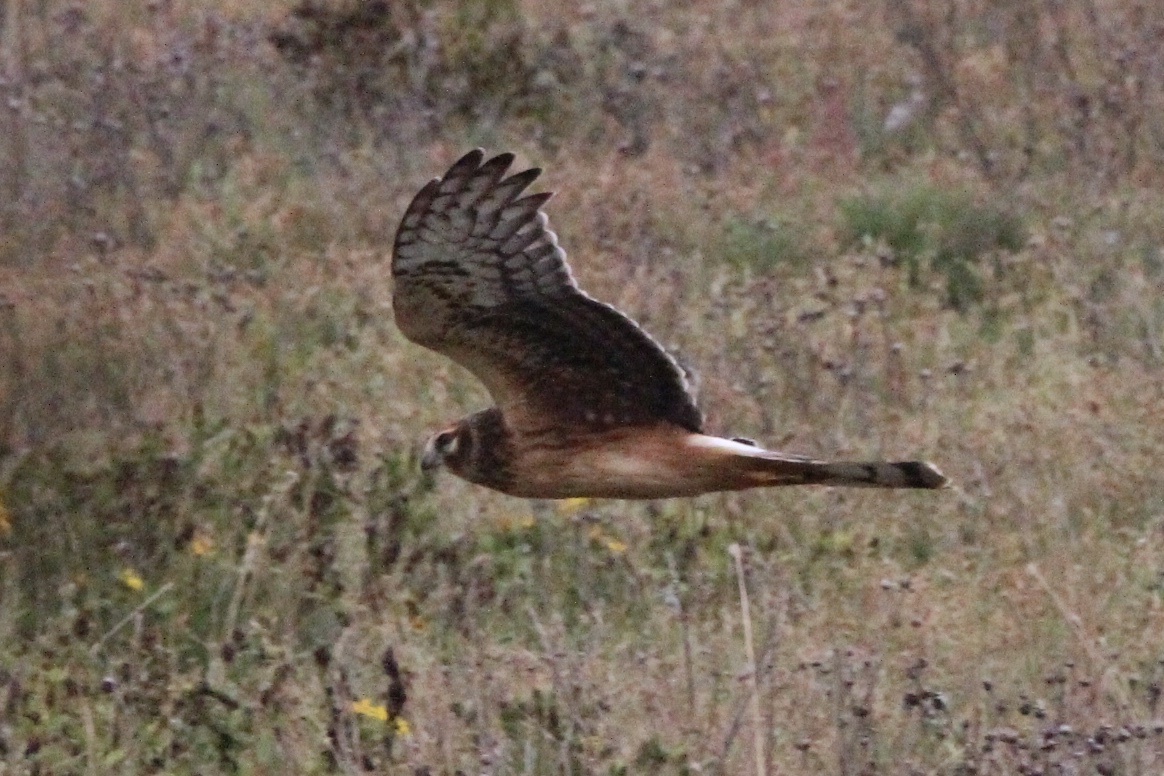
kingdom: Animalia
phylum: Chordata
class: Aves
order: Accipitriformes
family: Accipitridae
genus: Circus
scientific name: Circus cyaneus
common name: Hen harrier
